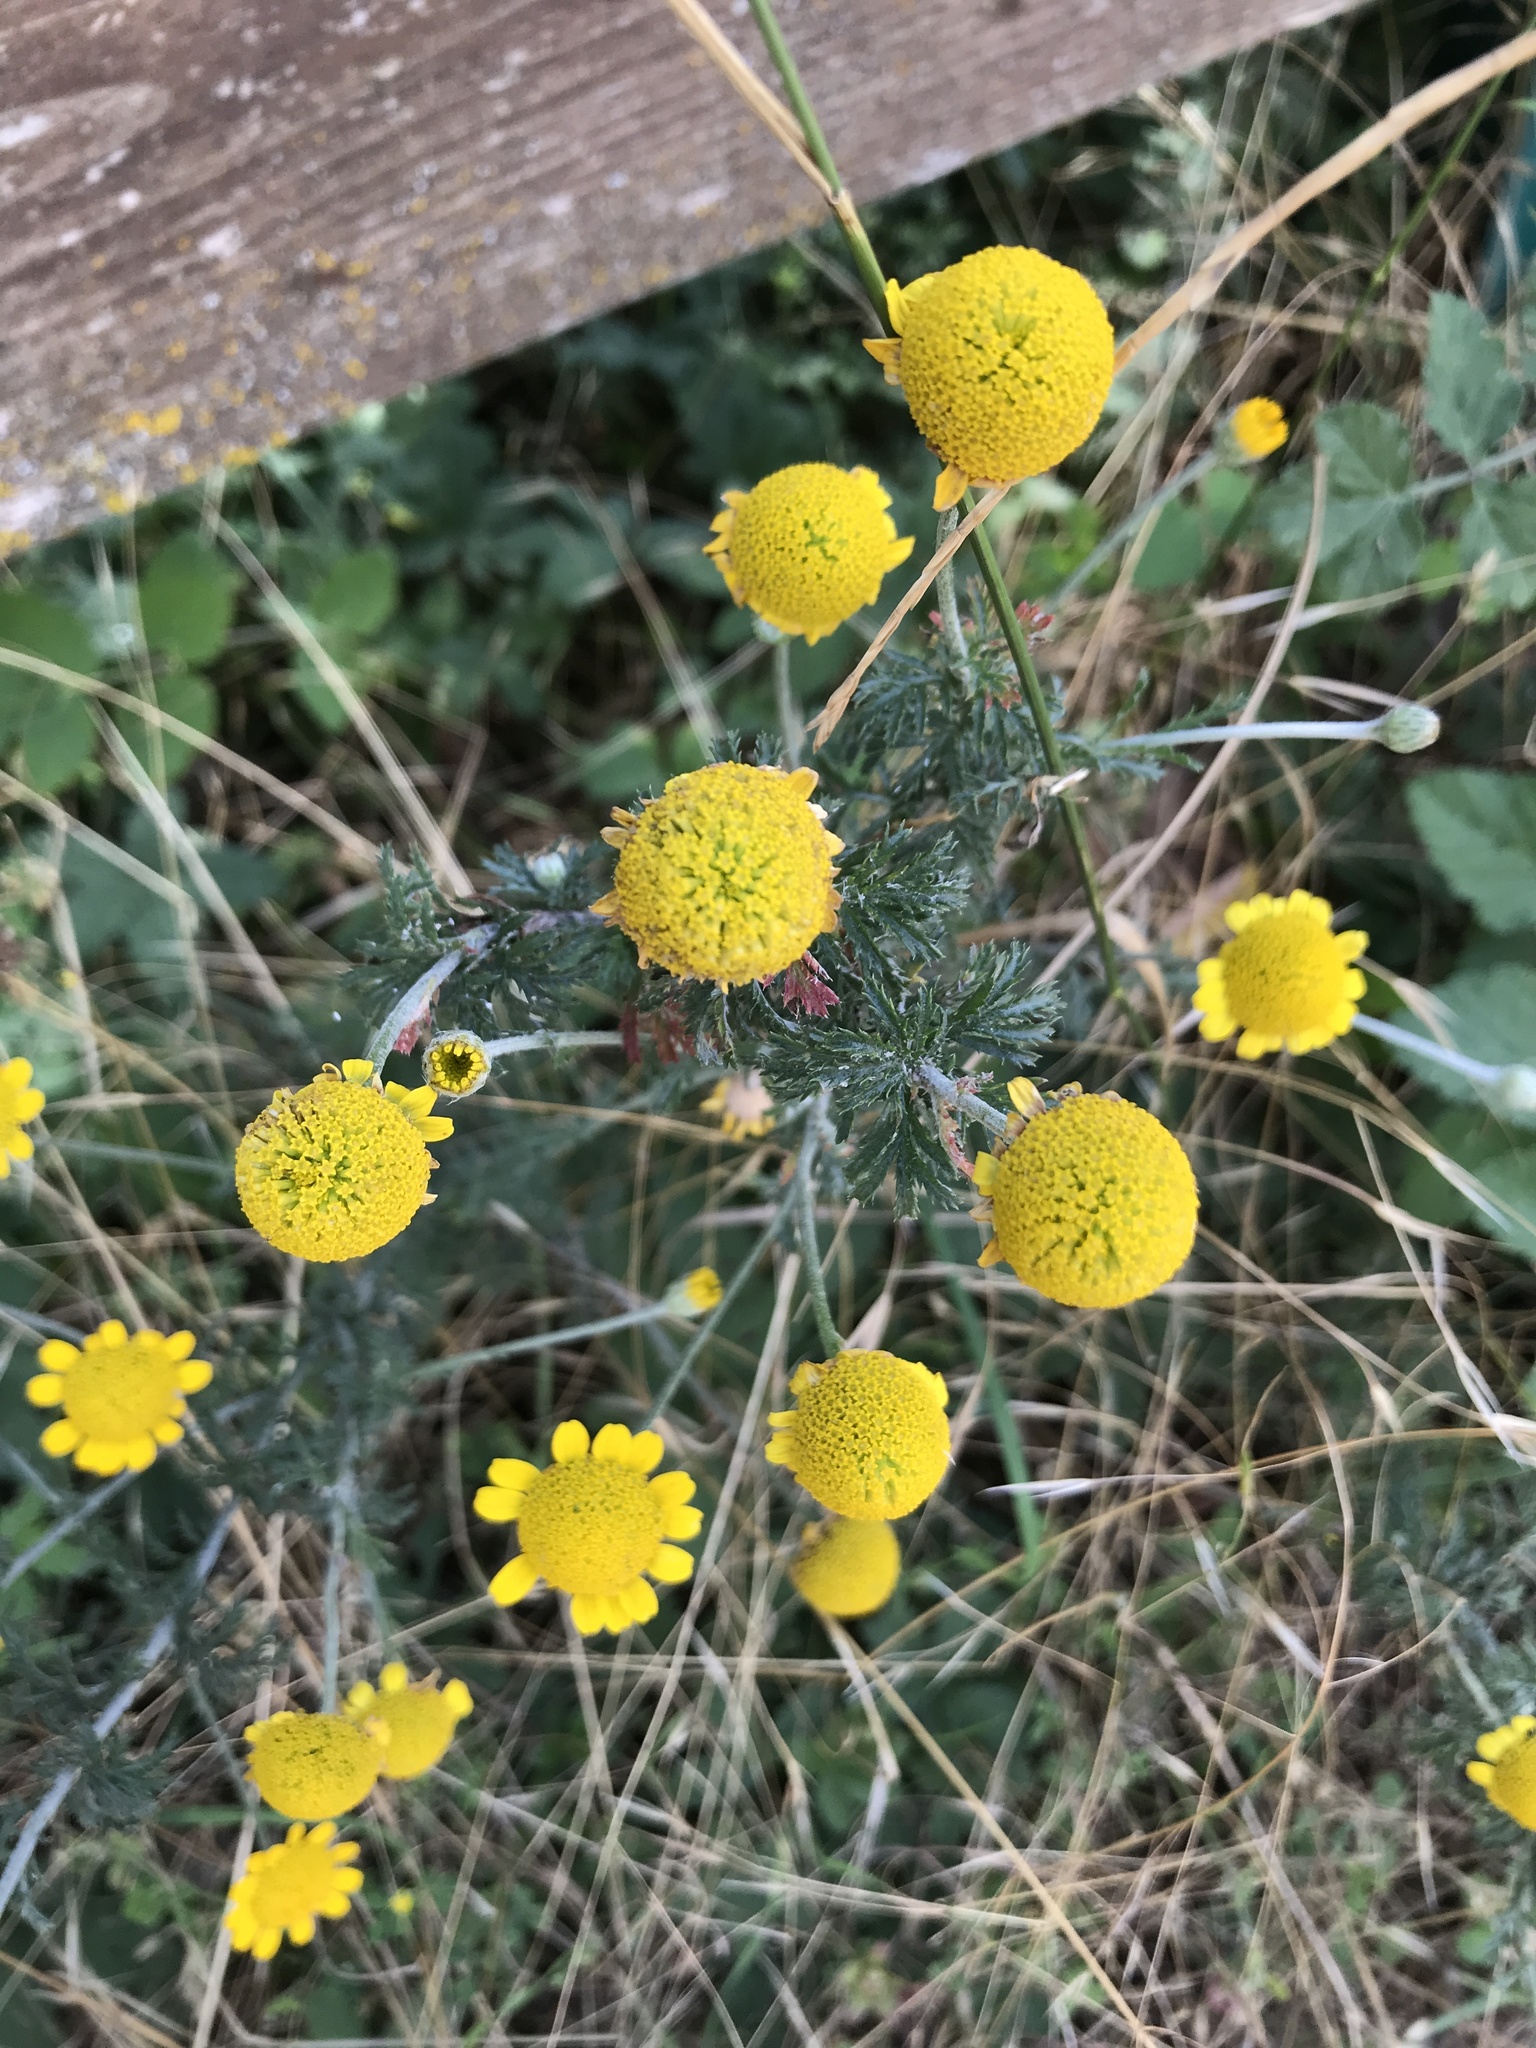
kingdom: Plantae
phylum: Tracheophyta
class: Magnoliopsida
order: Asterales
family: Asteraceae
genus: Cota
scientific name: Cota tinctoria
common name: Golden chamomile
